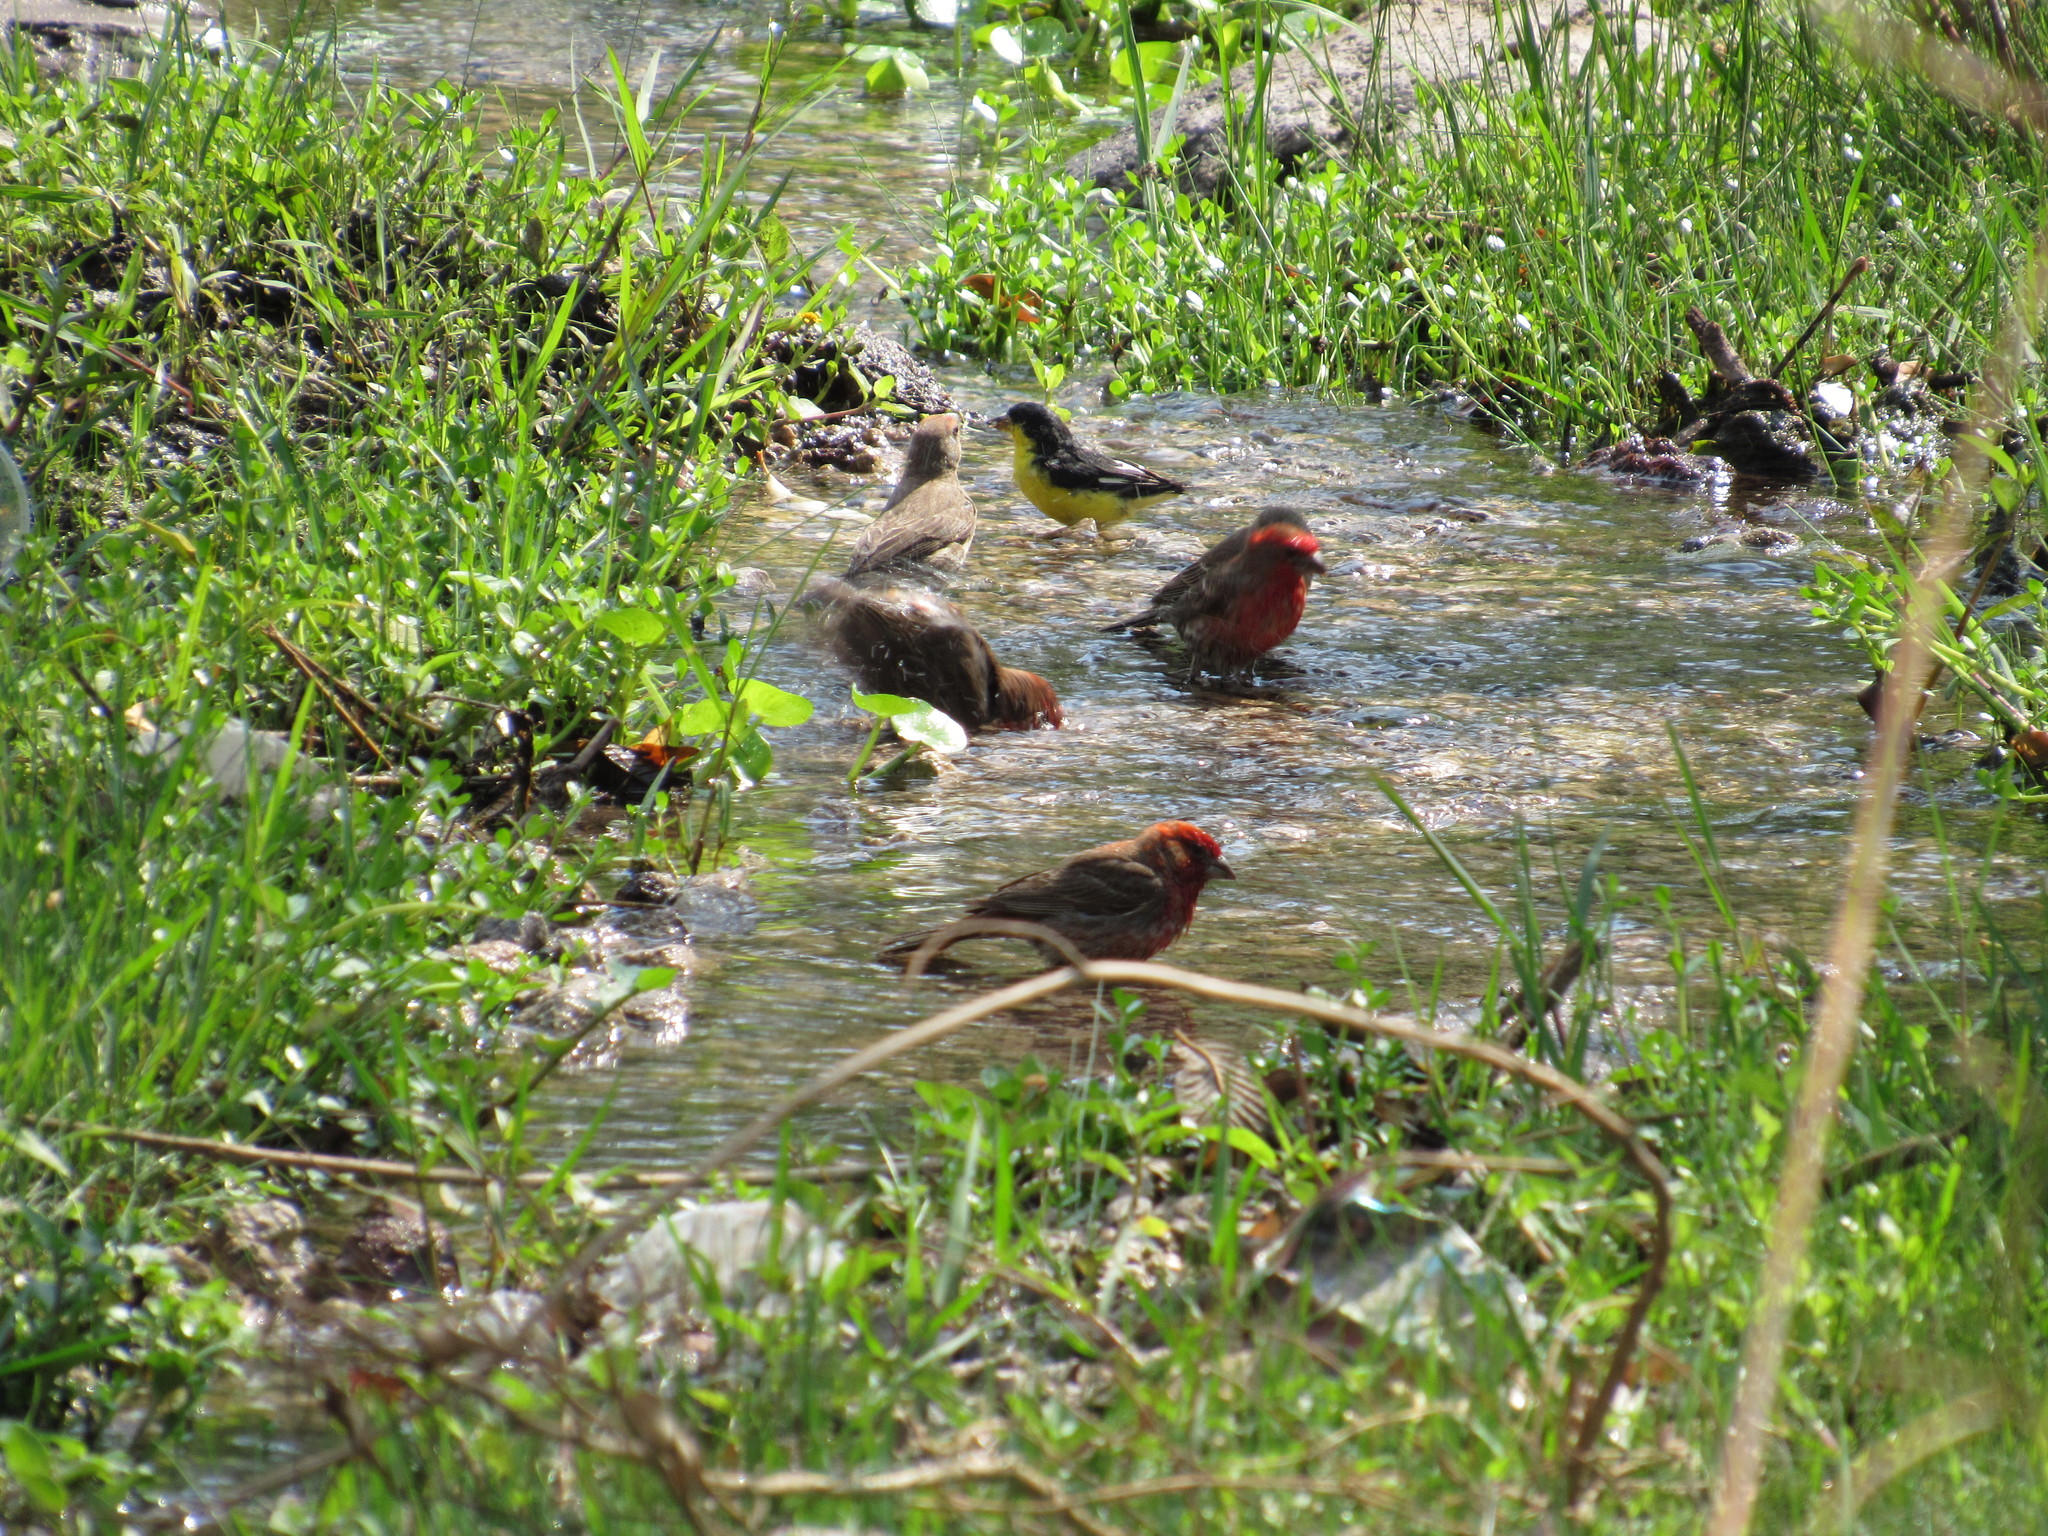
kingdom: Animalia
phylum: Chordata
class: Aves
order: Passeriformes
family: Fringillidae
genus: Spinus
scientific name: Spinus psaltria
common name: Lesser goldfinch
